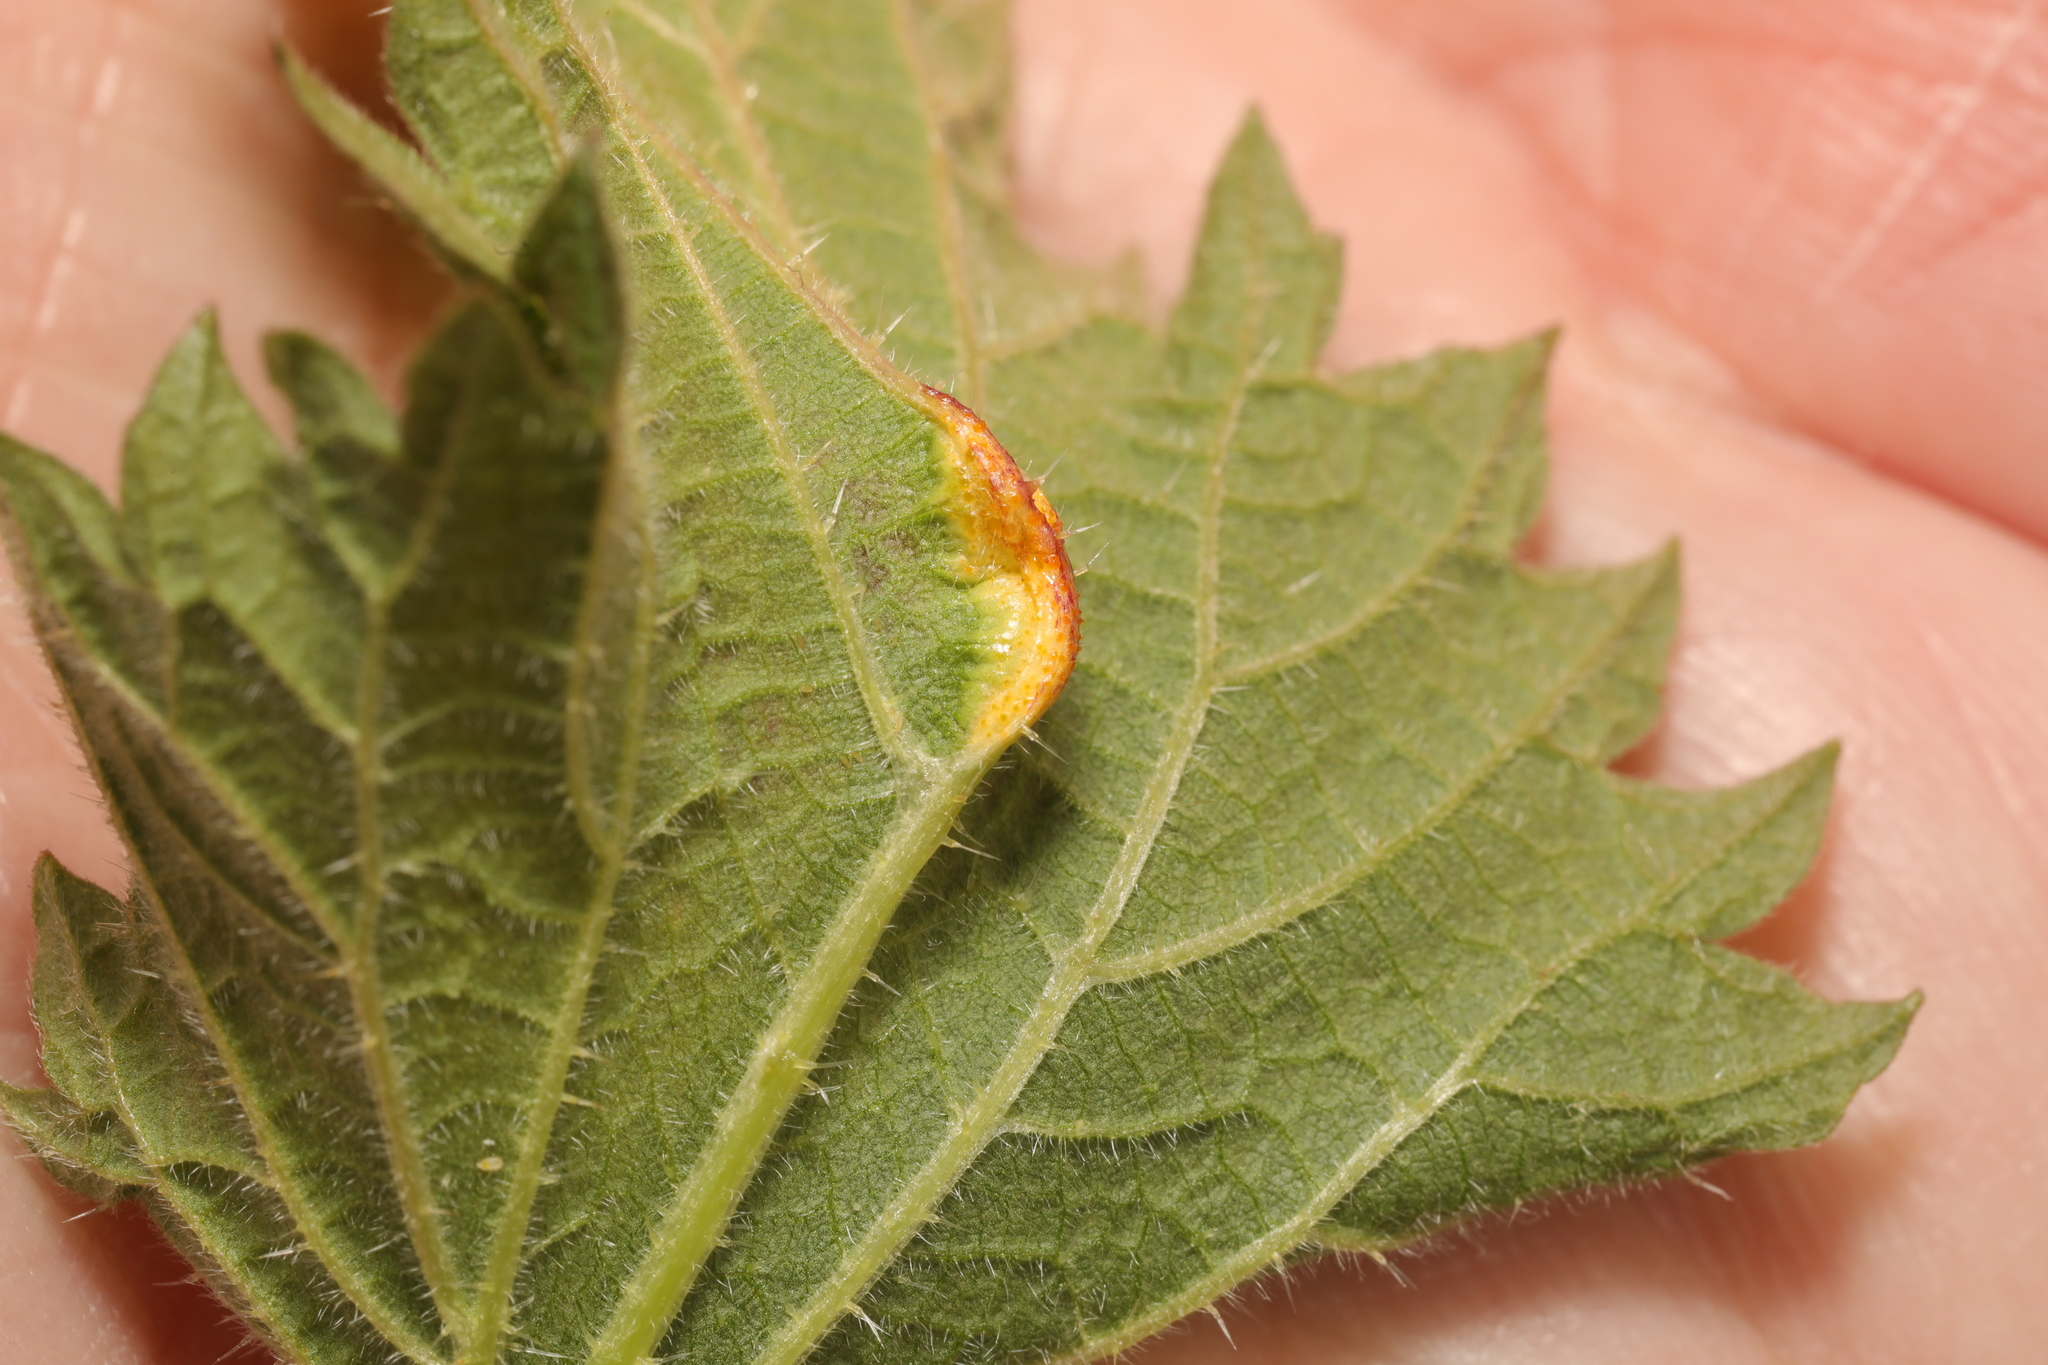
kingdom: Fungi
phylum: Basidiomycota
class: Pucciniomycetes
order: Pucciniales
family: Pucciniaceae
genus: Puccinia
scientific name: Puccinia urticata
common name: Nettle clustercup rust fungus
